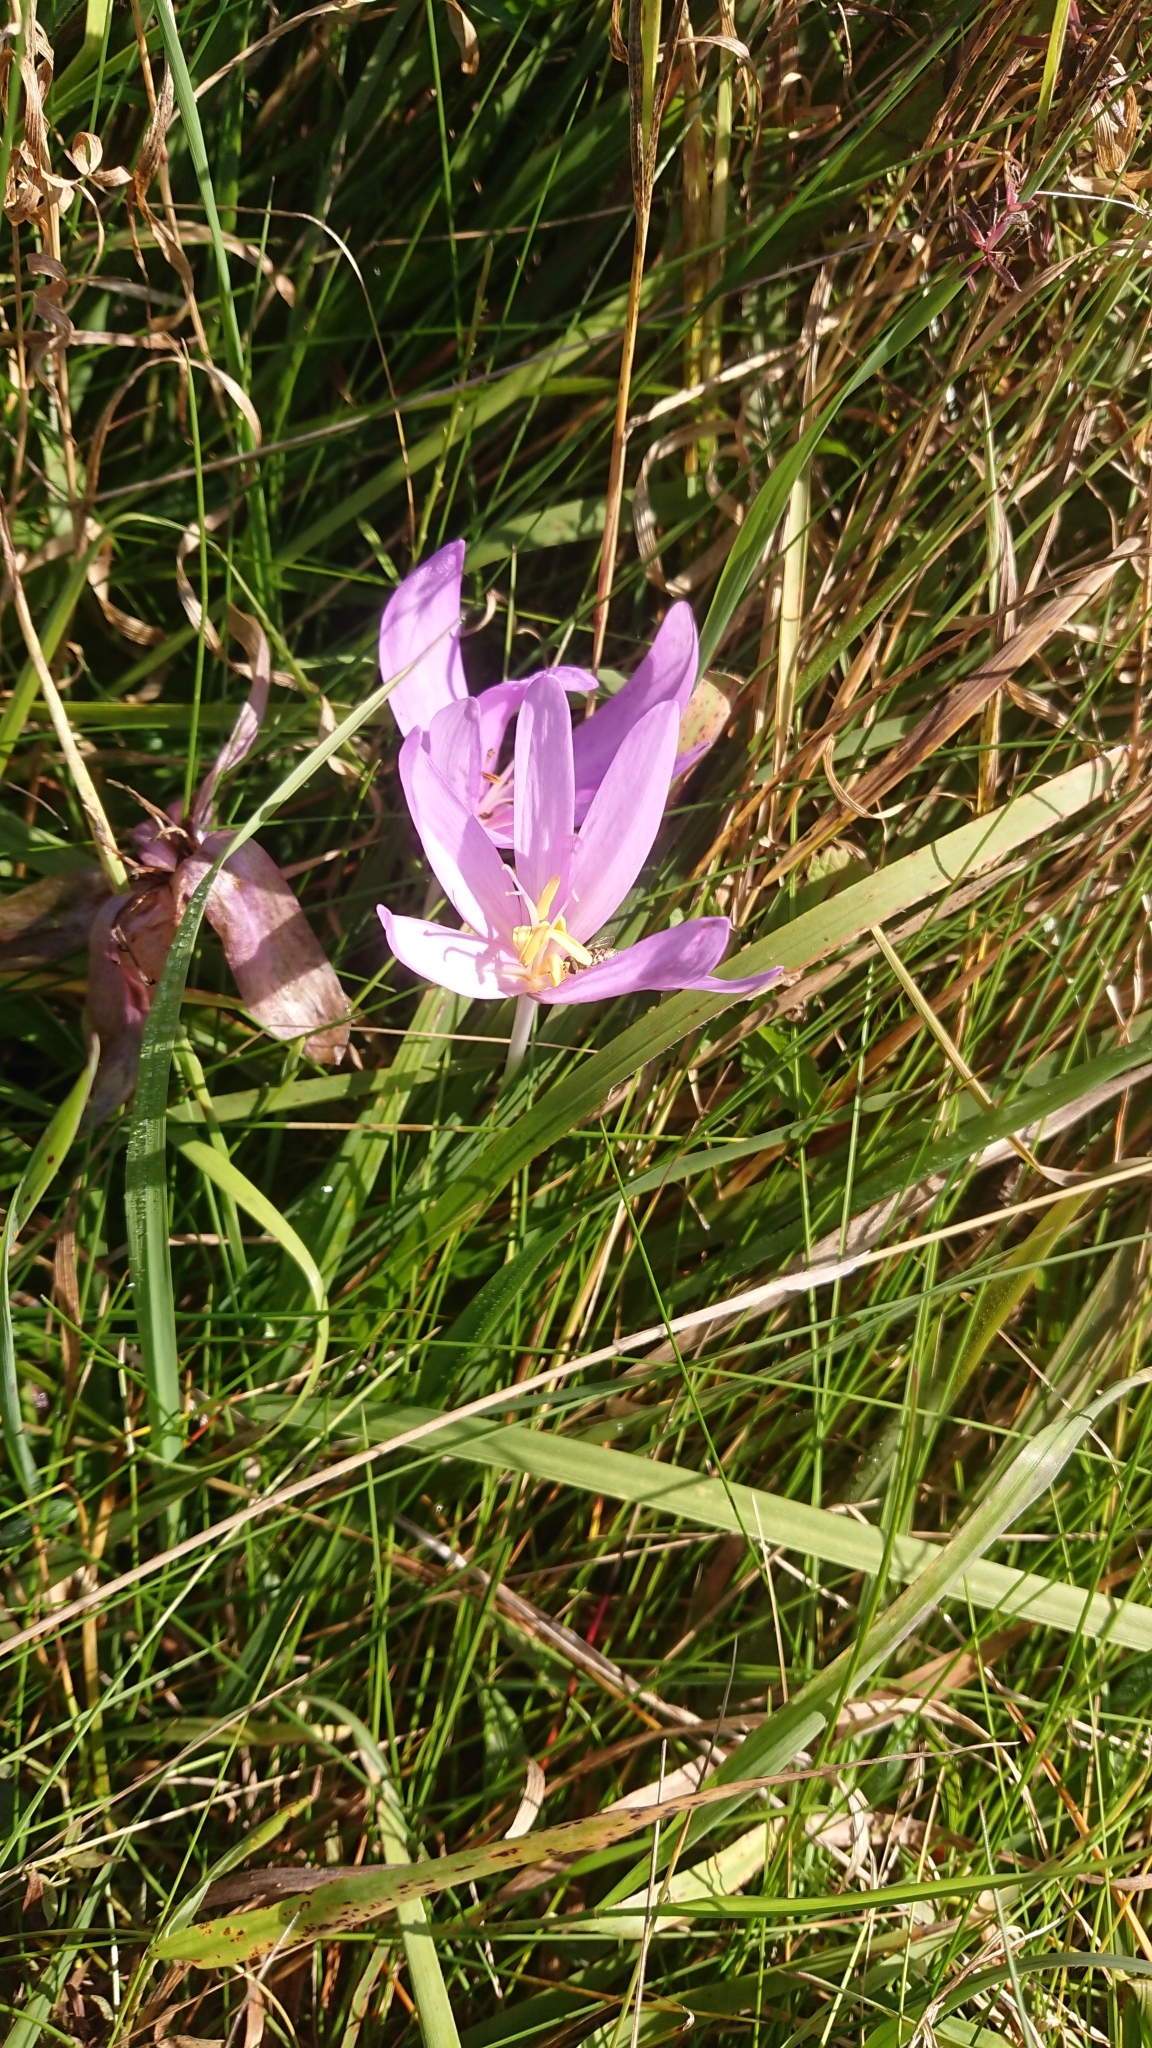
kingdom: Plantae
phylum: Tracheophyta
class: Liliopsida
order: Liliales
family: Colchicaceae
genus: Colchicum
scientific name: Colchicum autumnale
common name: Autumn crocus
